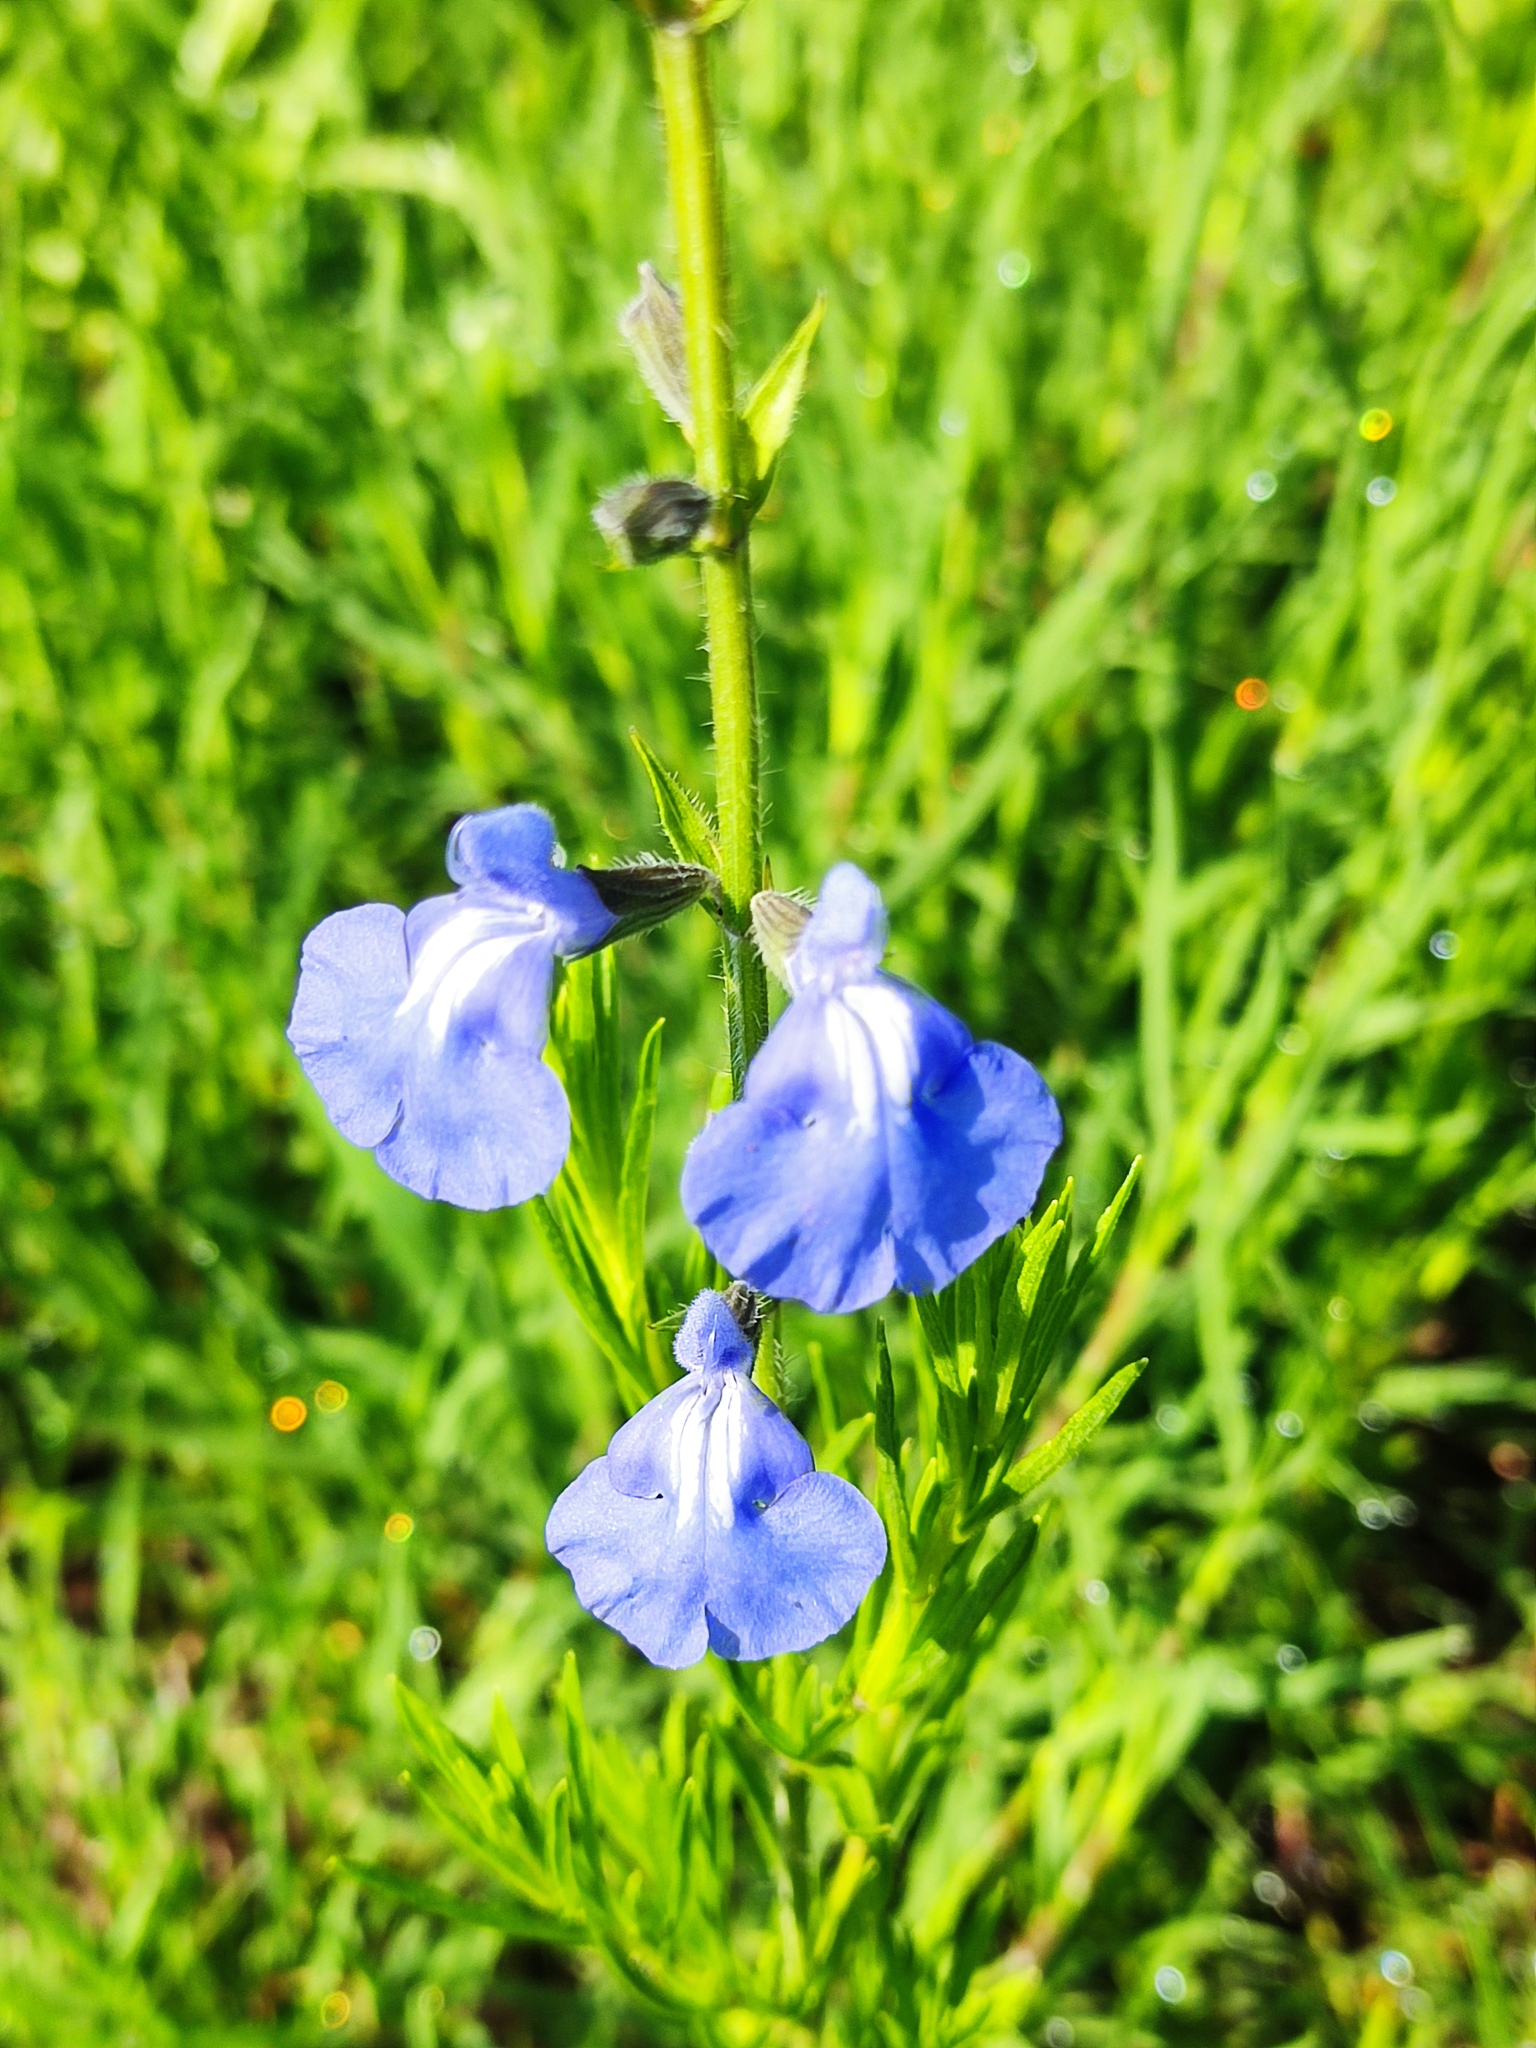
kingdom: Plantae
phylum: Tracheophyta
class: Magnoliopsida
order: Lamiales
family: Lamiaceae
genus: Salvia
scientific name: Salvia reptans
